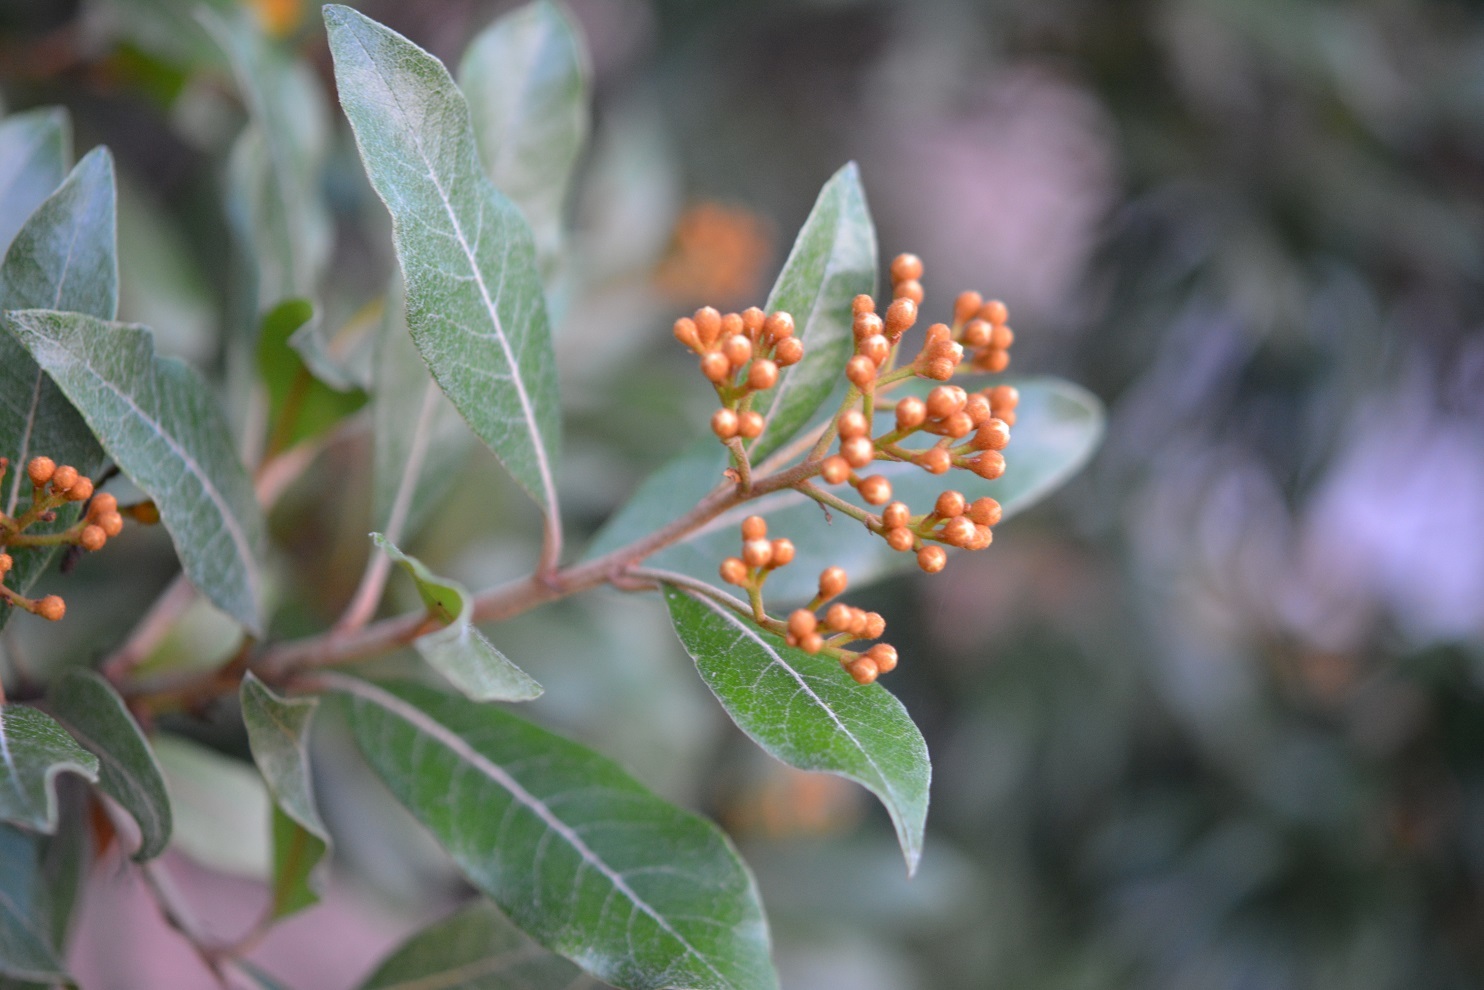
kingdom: Plantae
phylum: Tracheophyta
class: Magnoliopsida
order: Rosales
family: Rosaceae
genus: Phippsiomeles
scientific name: Phippsiomeles matudae
